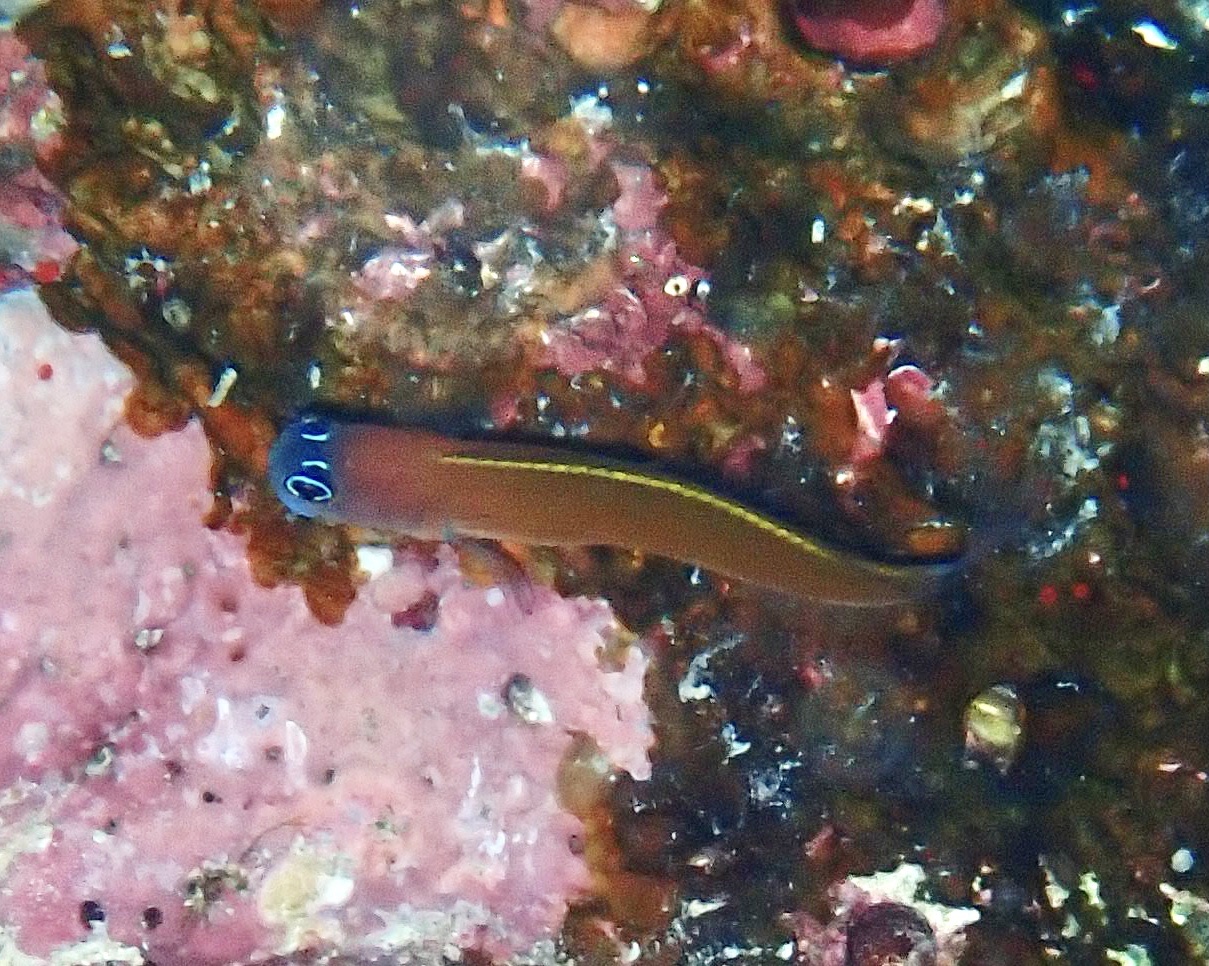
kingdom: Animalia
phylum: Chordata
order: Perciformes
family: Blenniidae
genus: Ecsenius
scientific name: Ecsenius aroni
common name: Aron's blenny
